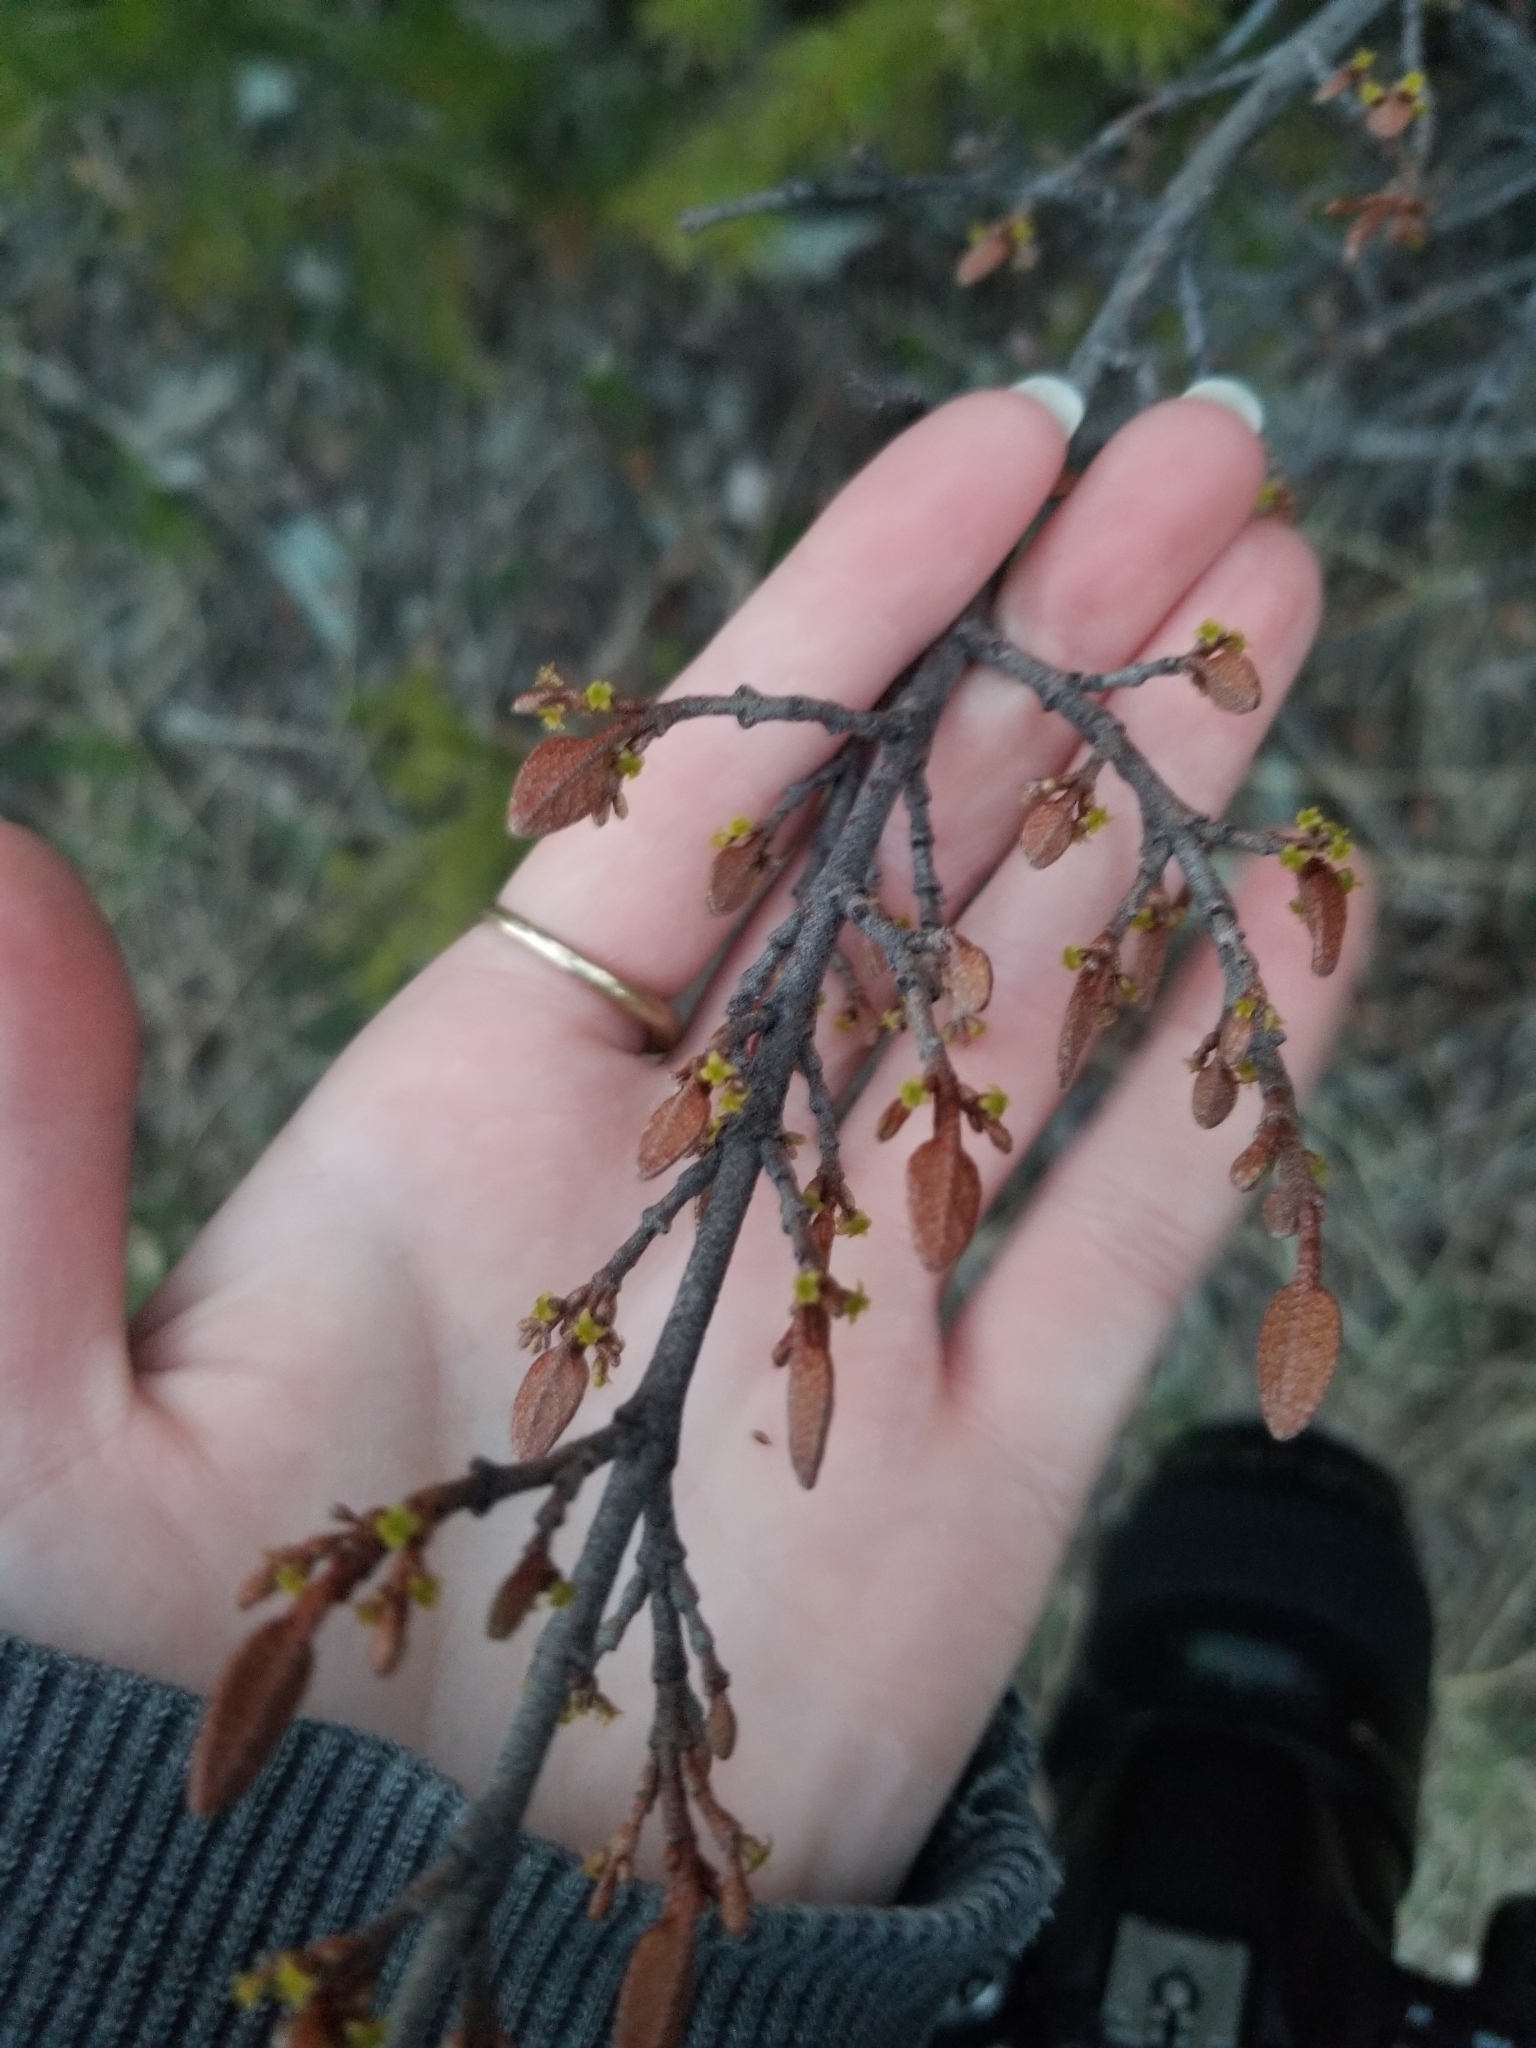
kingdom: Plantae
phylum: Tracheophyta
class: Magnoliopsida
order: Rosales
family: Elaeagnaceae
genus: Shepherdia
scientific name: Shepherdia canadensis
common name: Soapberry
